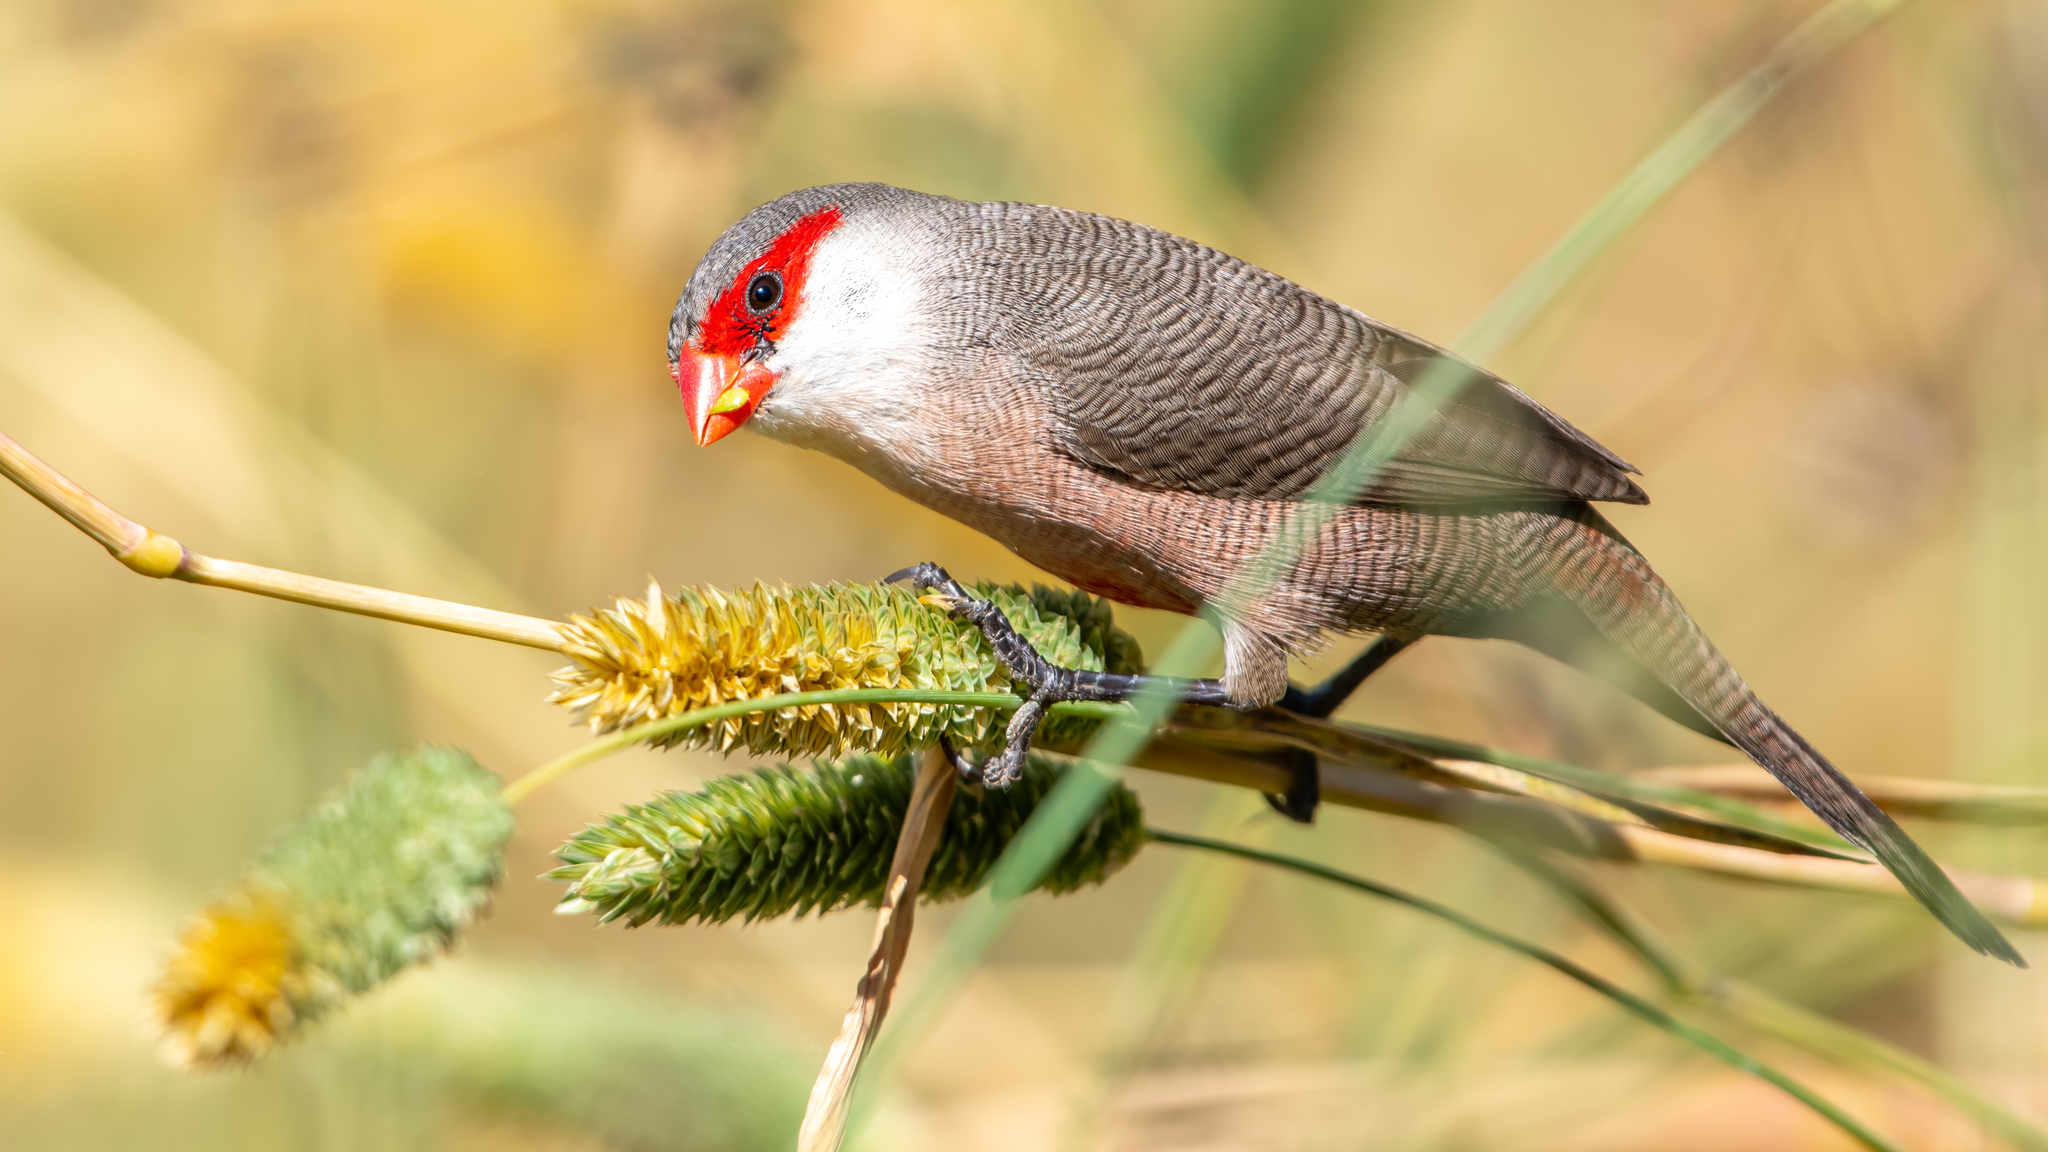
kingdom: Animalia
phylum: Chordata
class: Aves
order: Passeriformes
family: Estrildidae
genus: Estrilda
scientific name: Estrilda astrild
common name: Common waxbill
